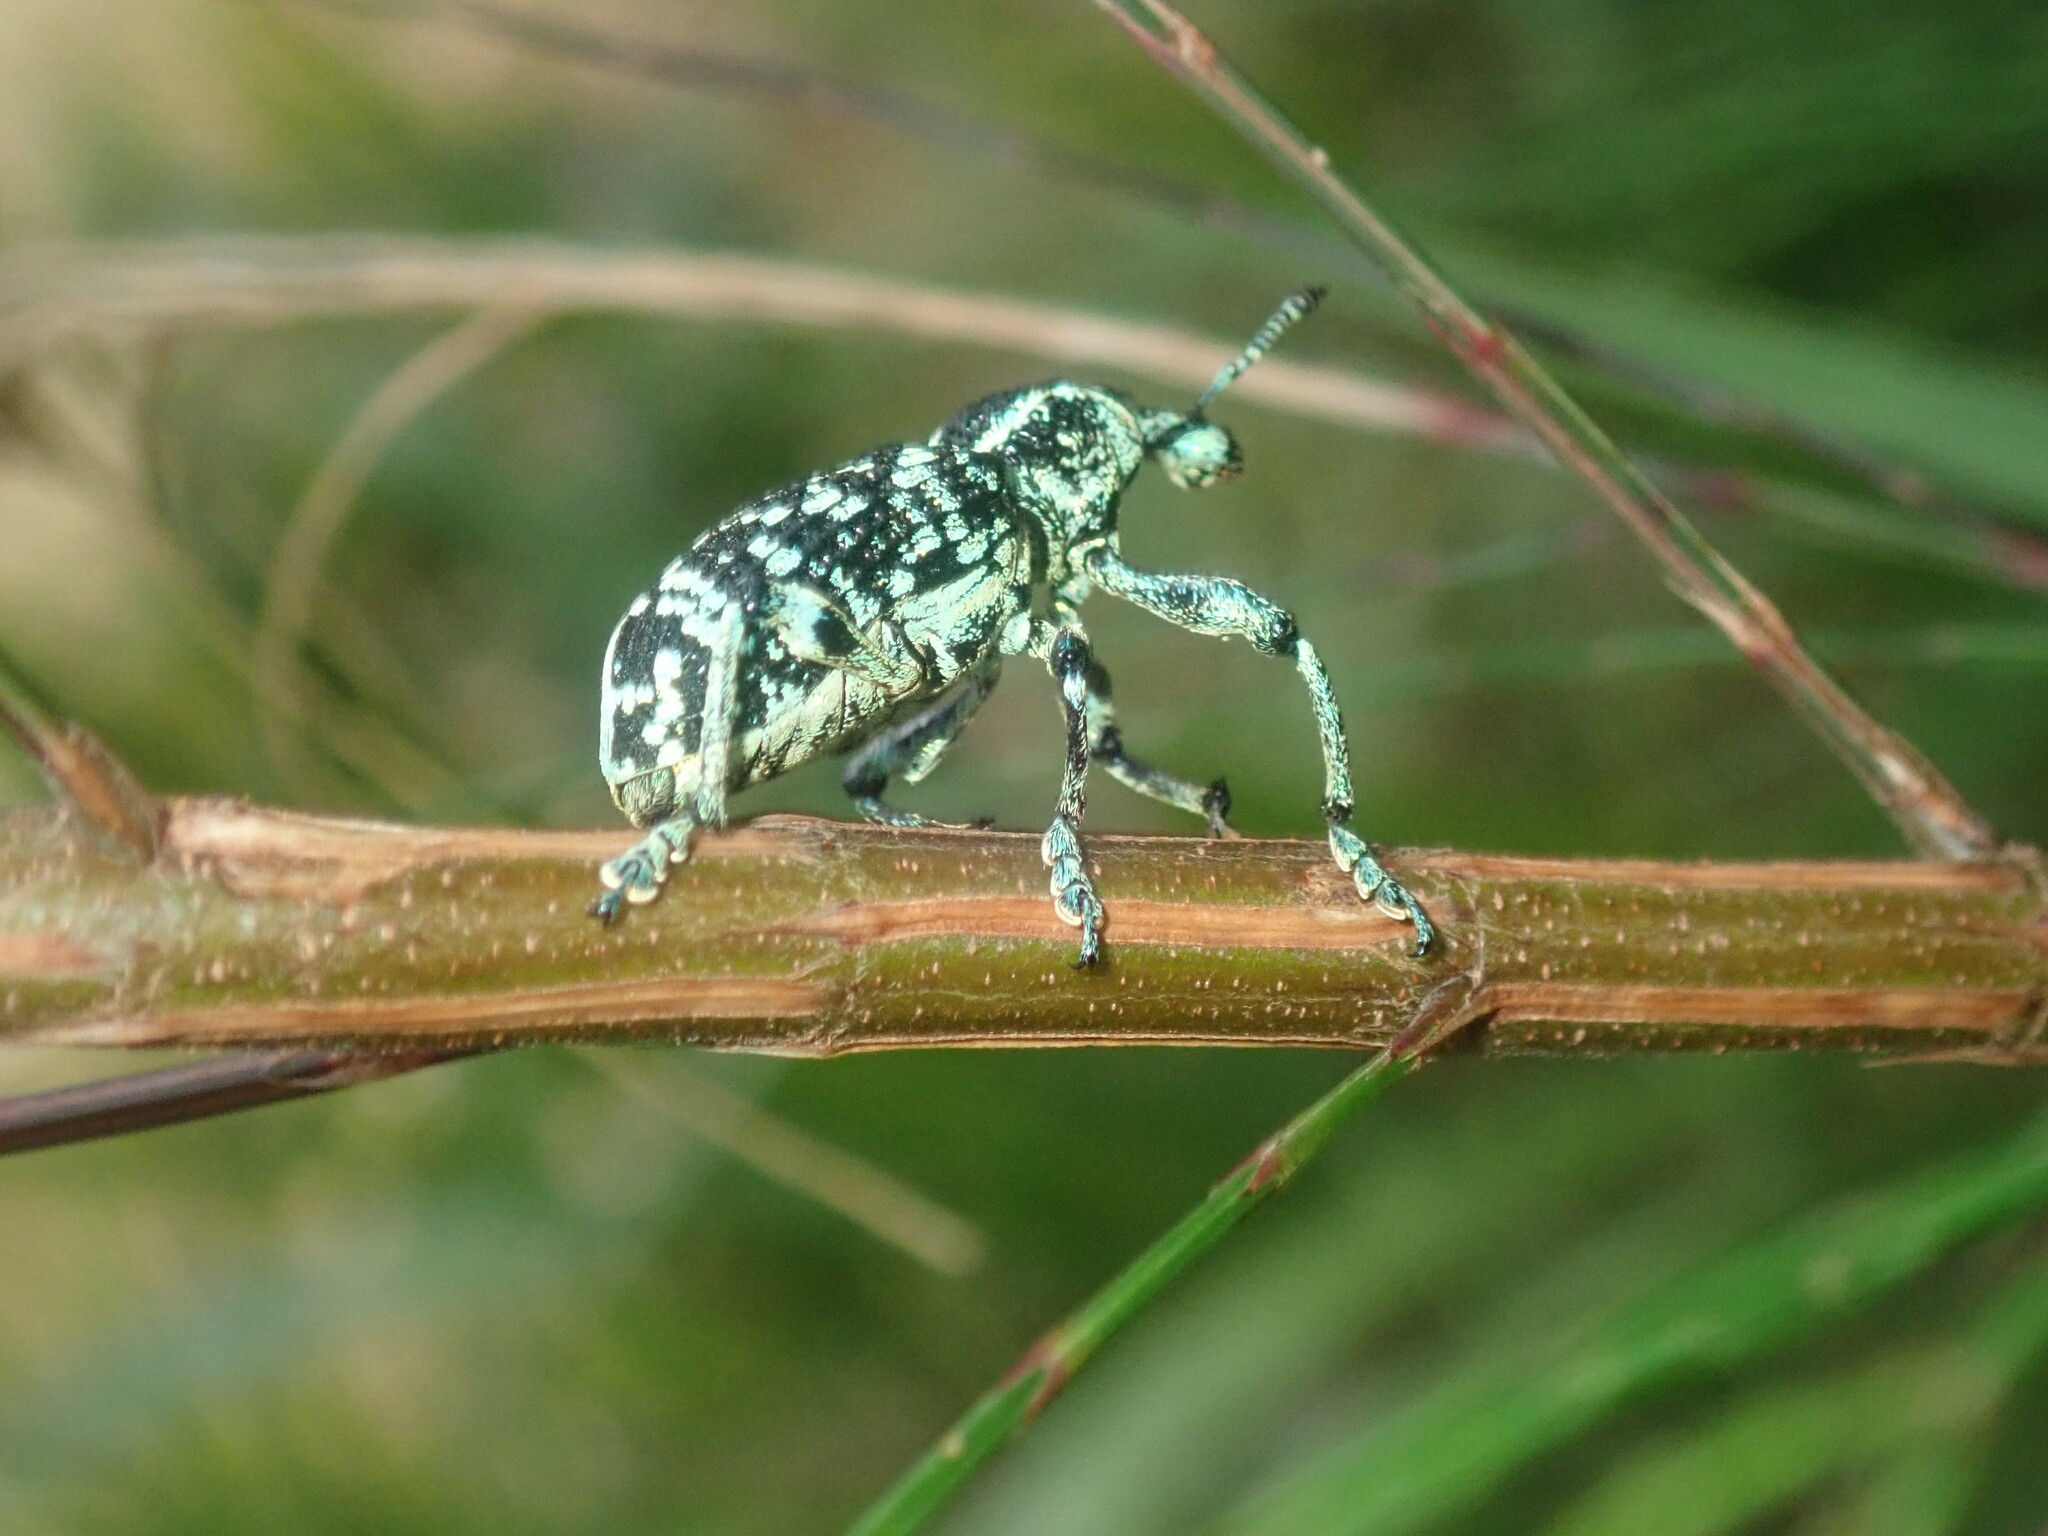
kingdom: Animalia
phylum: Arthropoda
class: Insecta
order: Coleoptera
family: Curculionidae
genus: Chrysolopus
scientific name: Chrysolopus spectabilis
